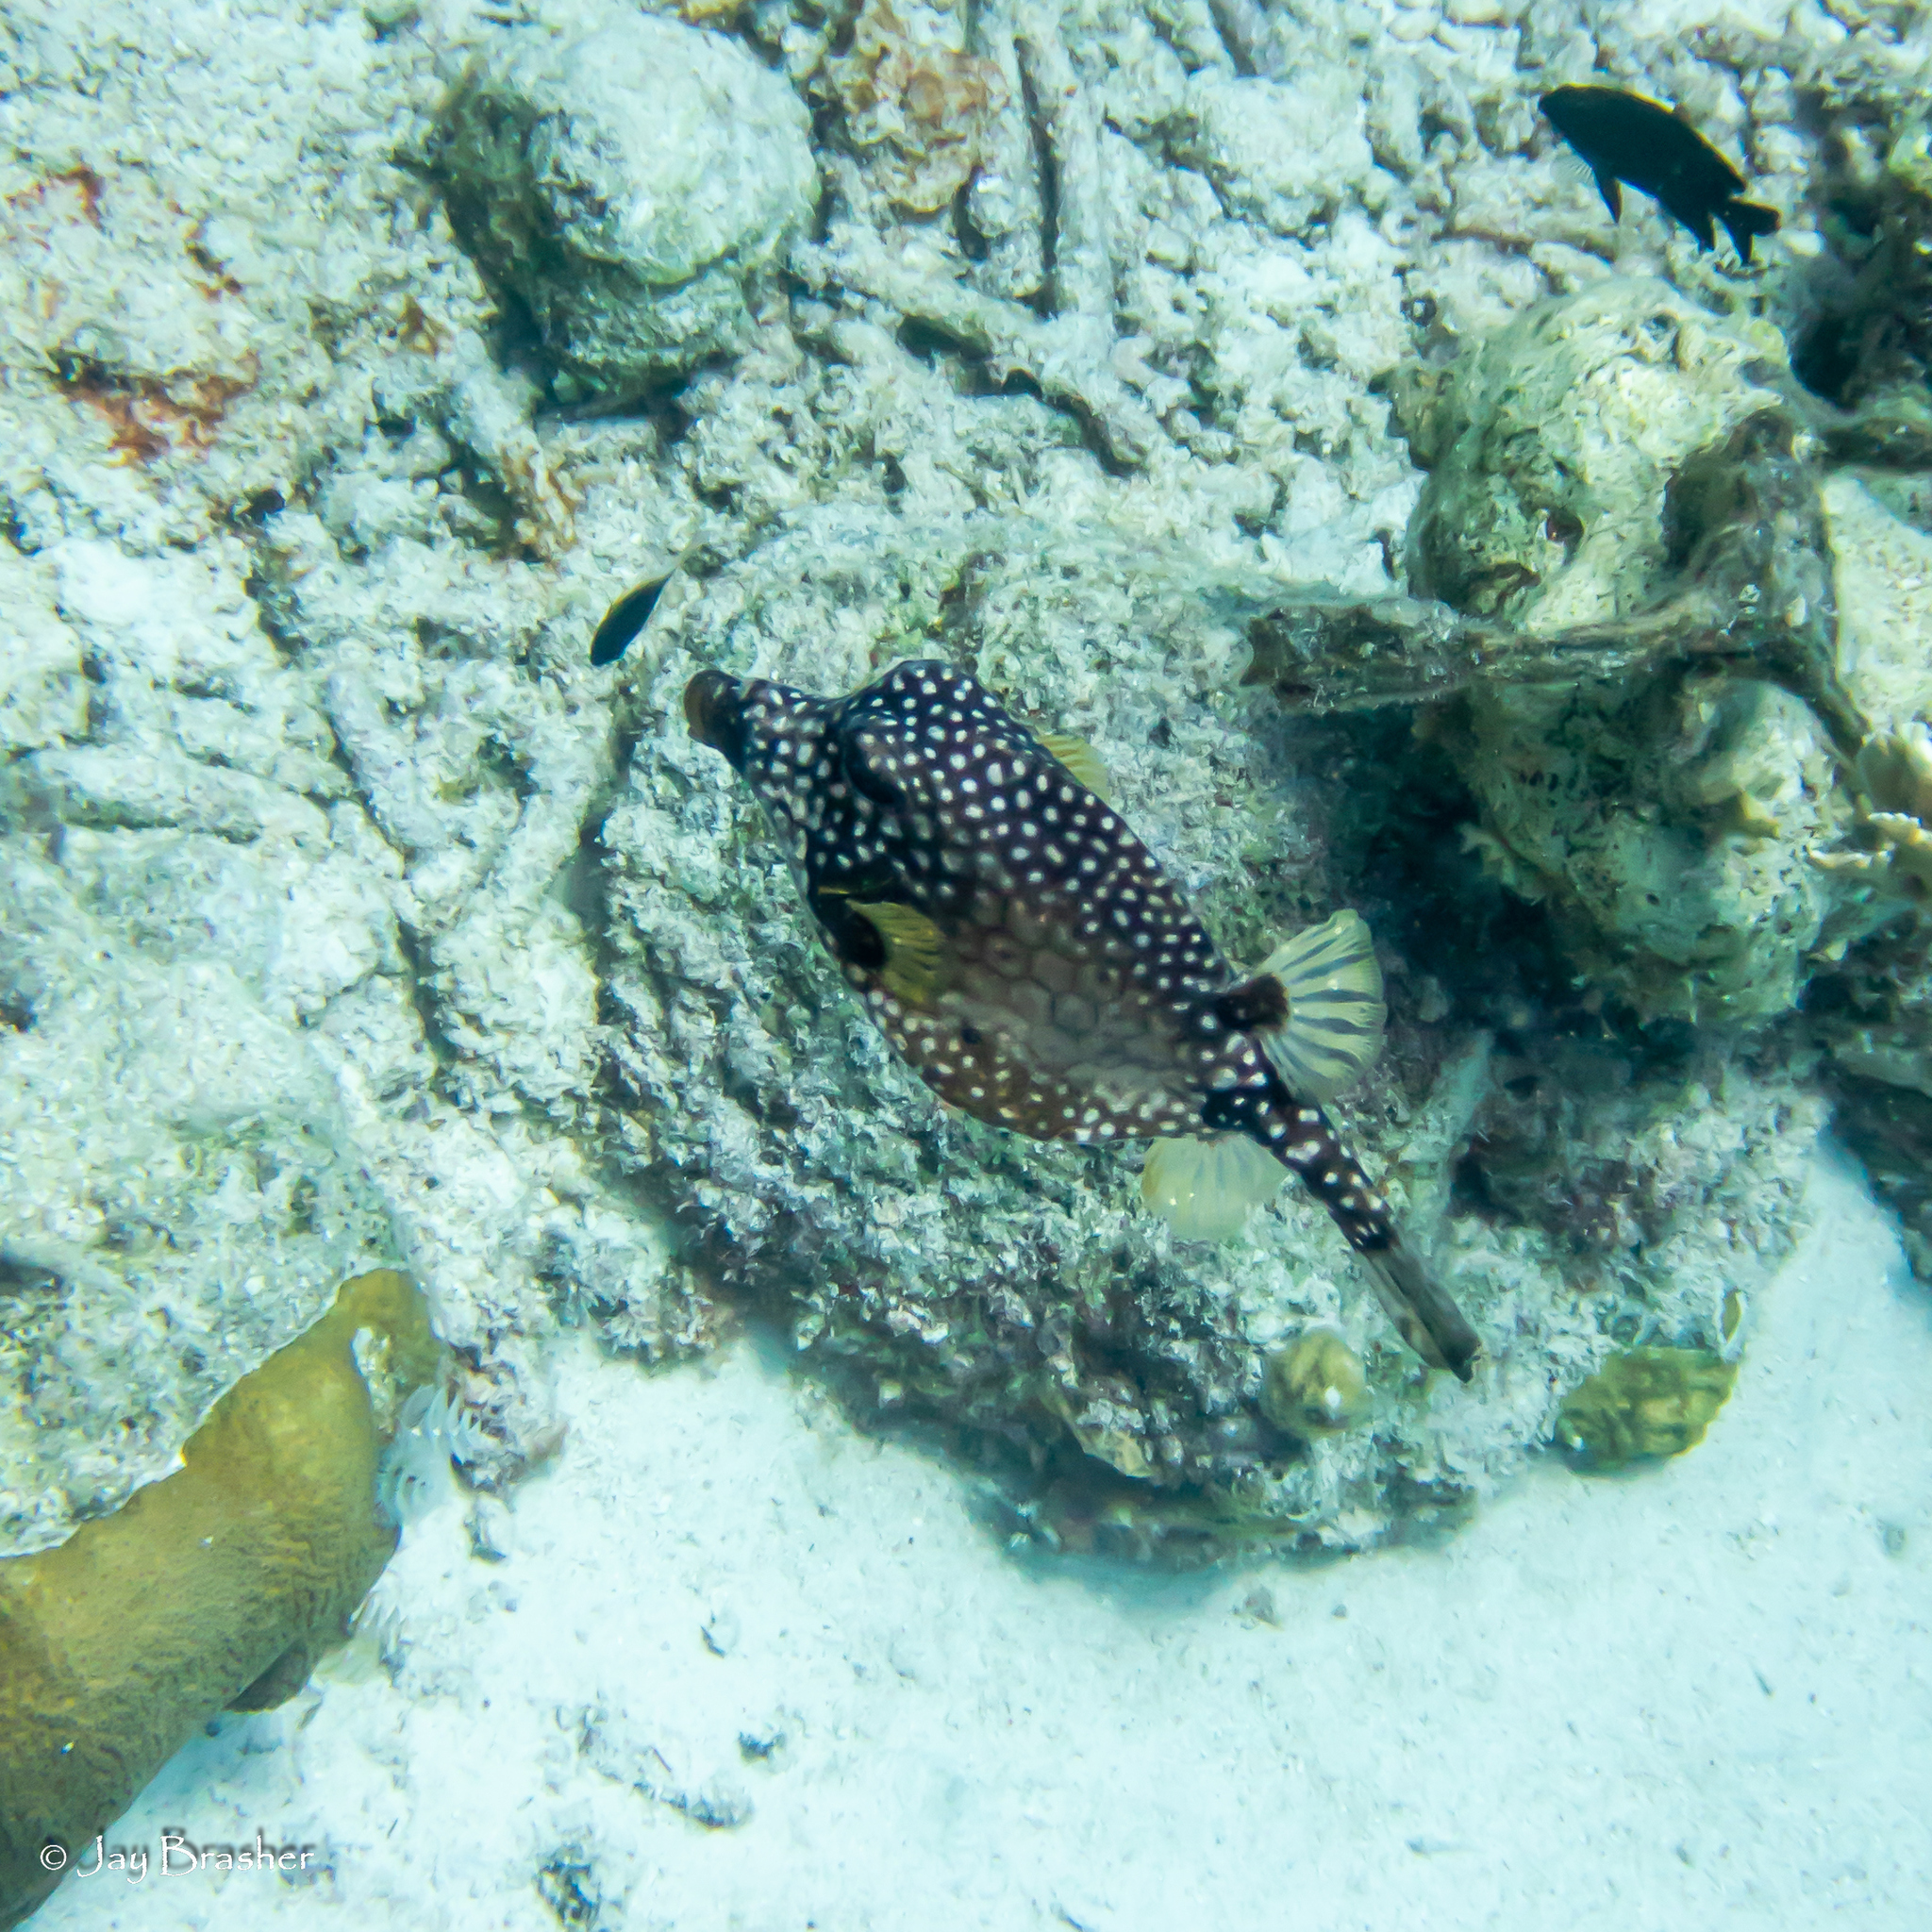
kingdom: Animalia
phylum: Chordata
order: Tetraodontiformes
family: Ostraciidae
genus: Lactophrys
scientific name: Lactophrys triqueter
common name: Smooth trunkfish
